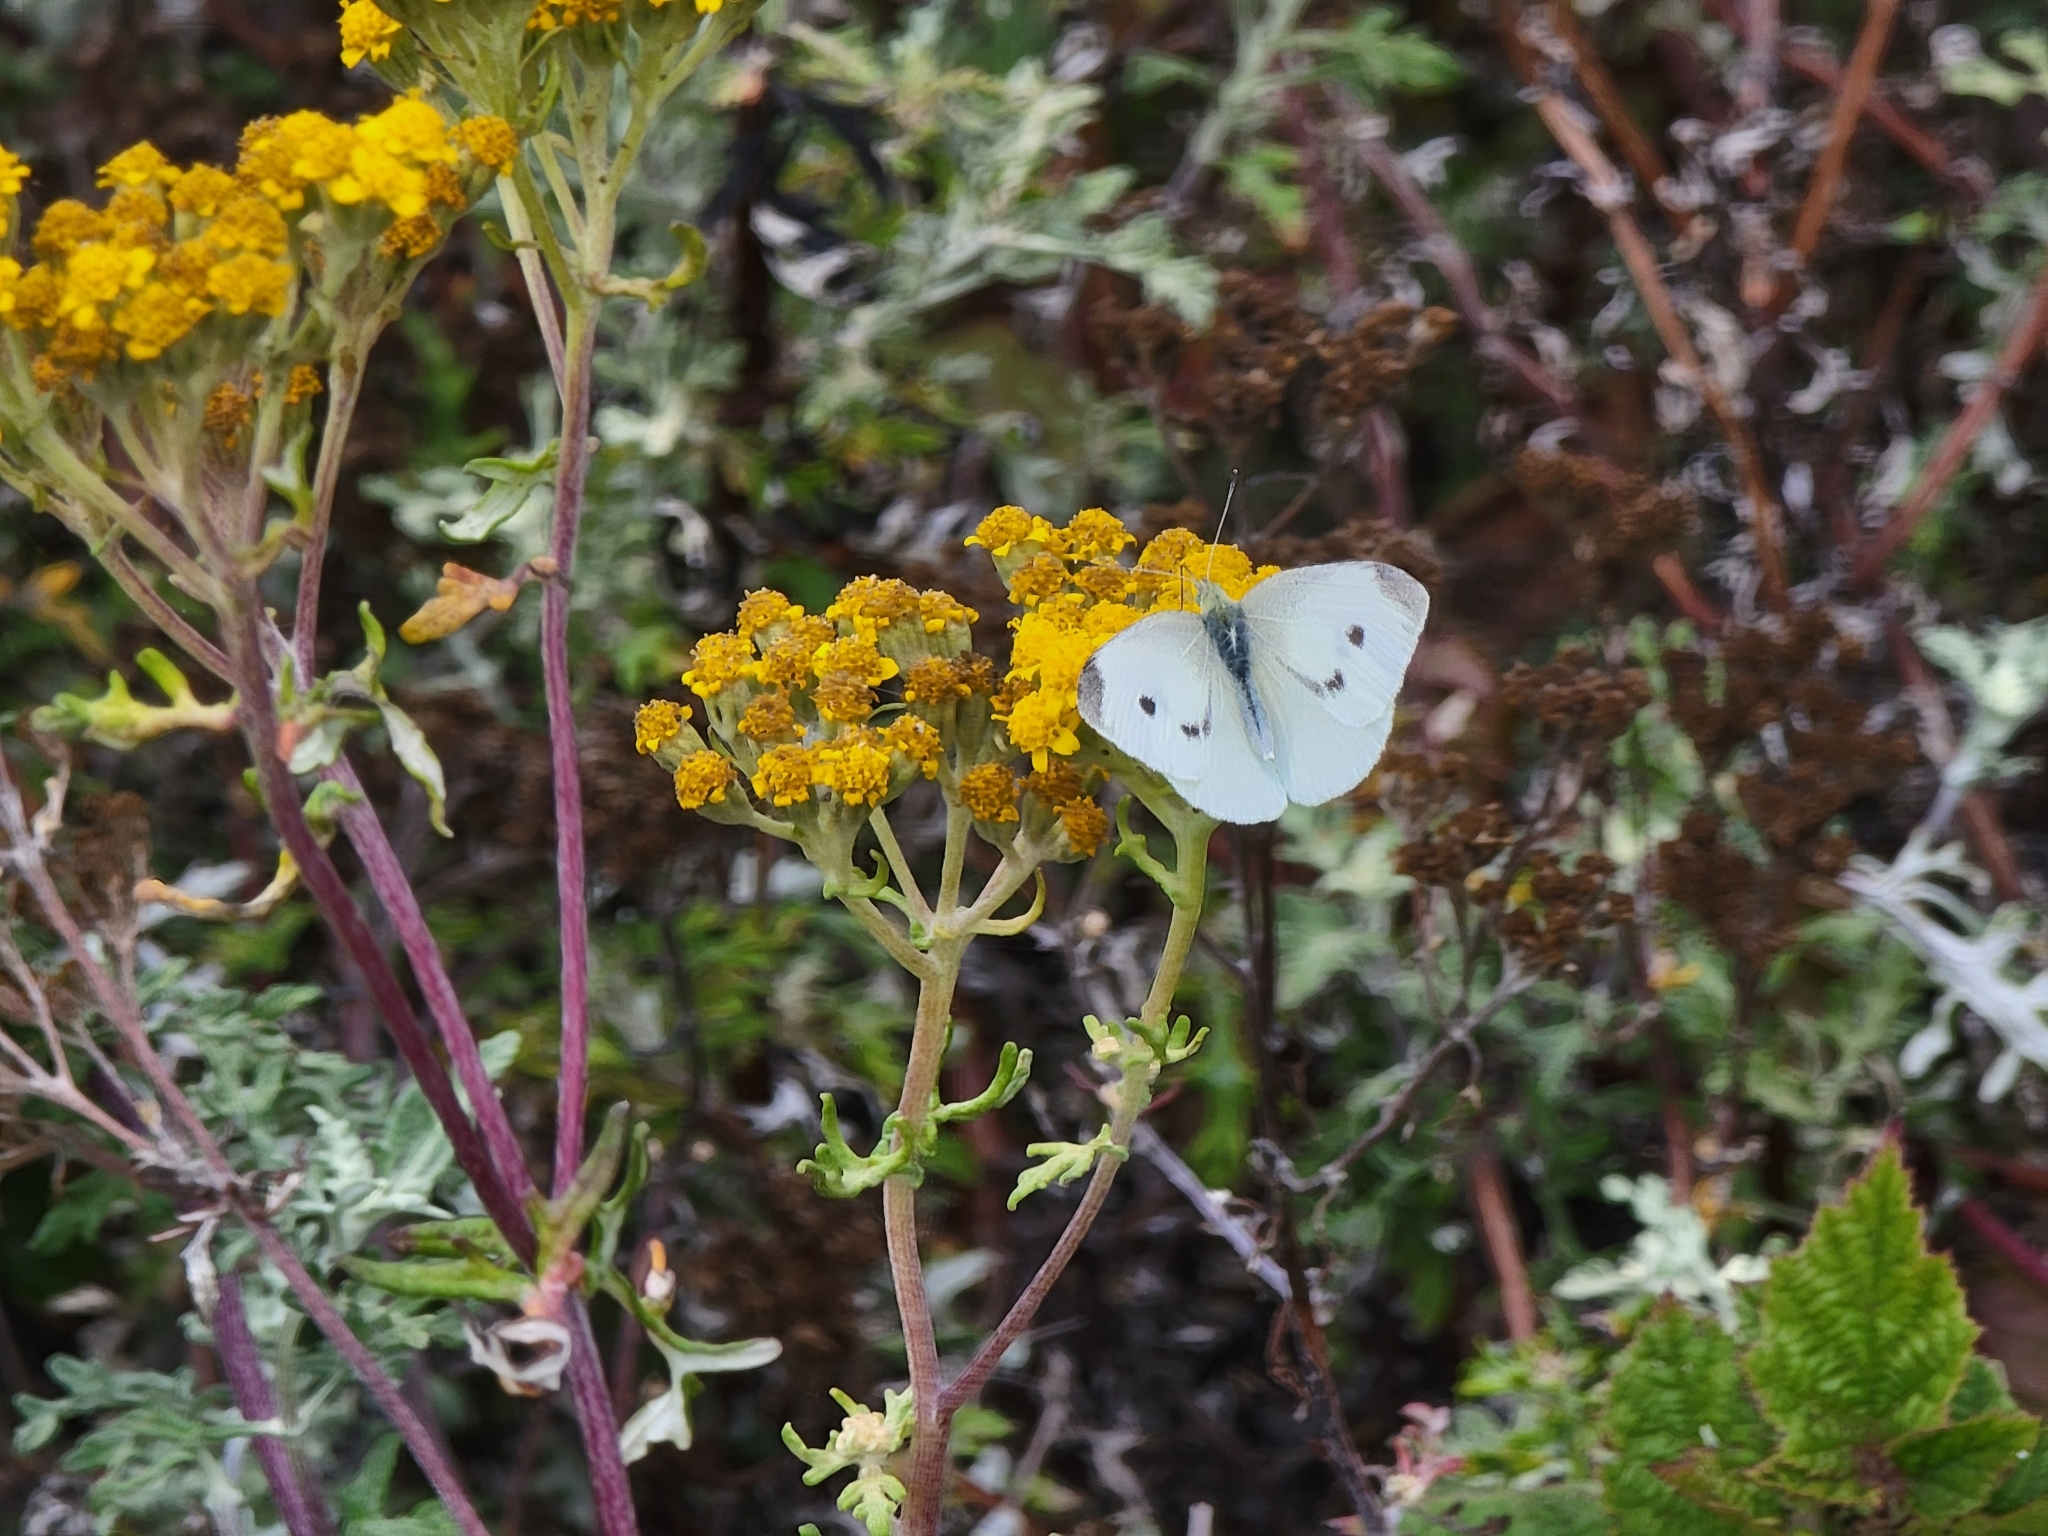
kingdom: Animalia
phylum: Arthropoda
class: Insecta
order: Lepidoptera
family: Pieridae
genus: Pieris
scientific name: Pieris rapae
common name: Small white
